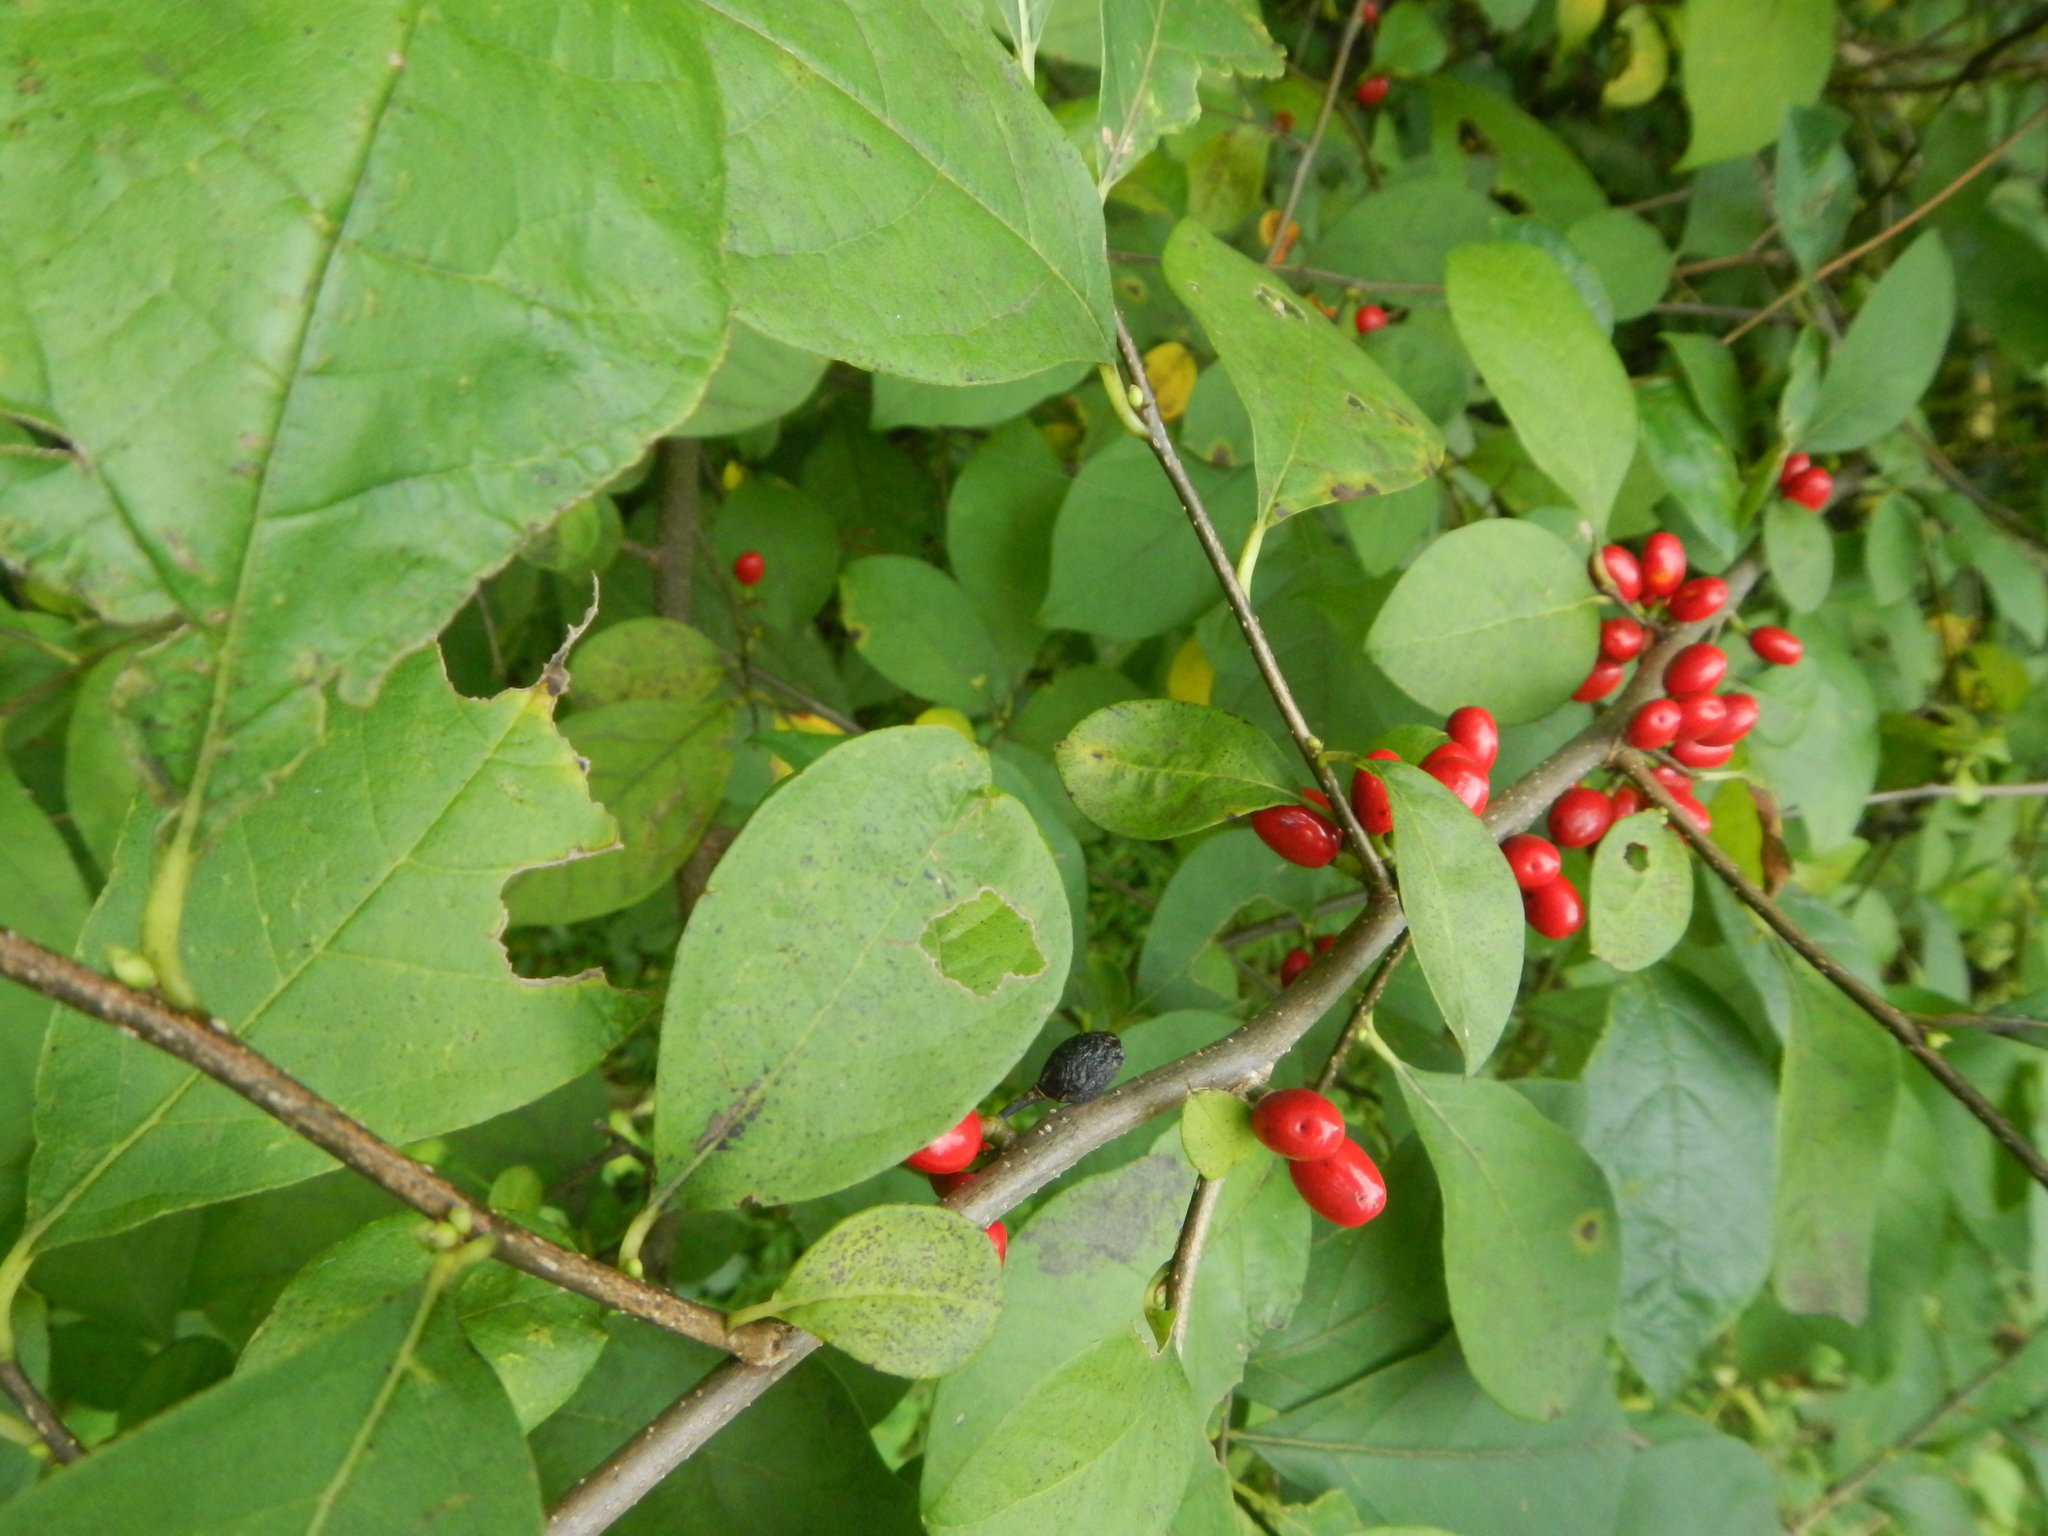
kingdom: Plantae
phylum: Tracheophyta
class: Magnoliopsida
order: Laurales
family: Lauraceae
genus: Lindera
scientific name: Lindera benzoin
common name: Spicebush
